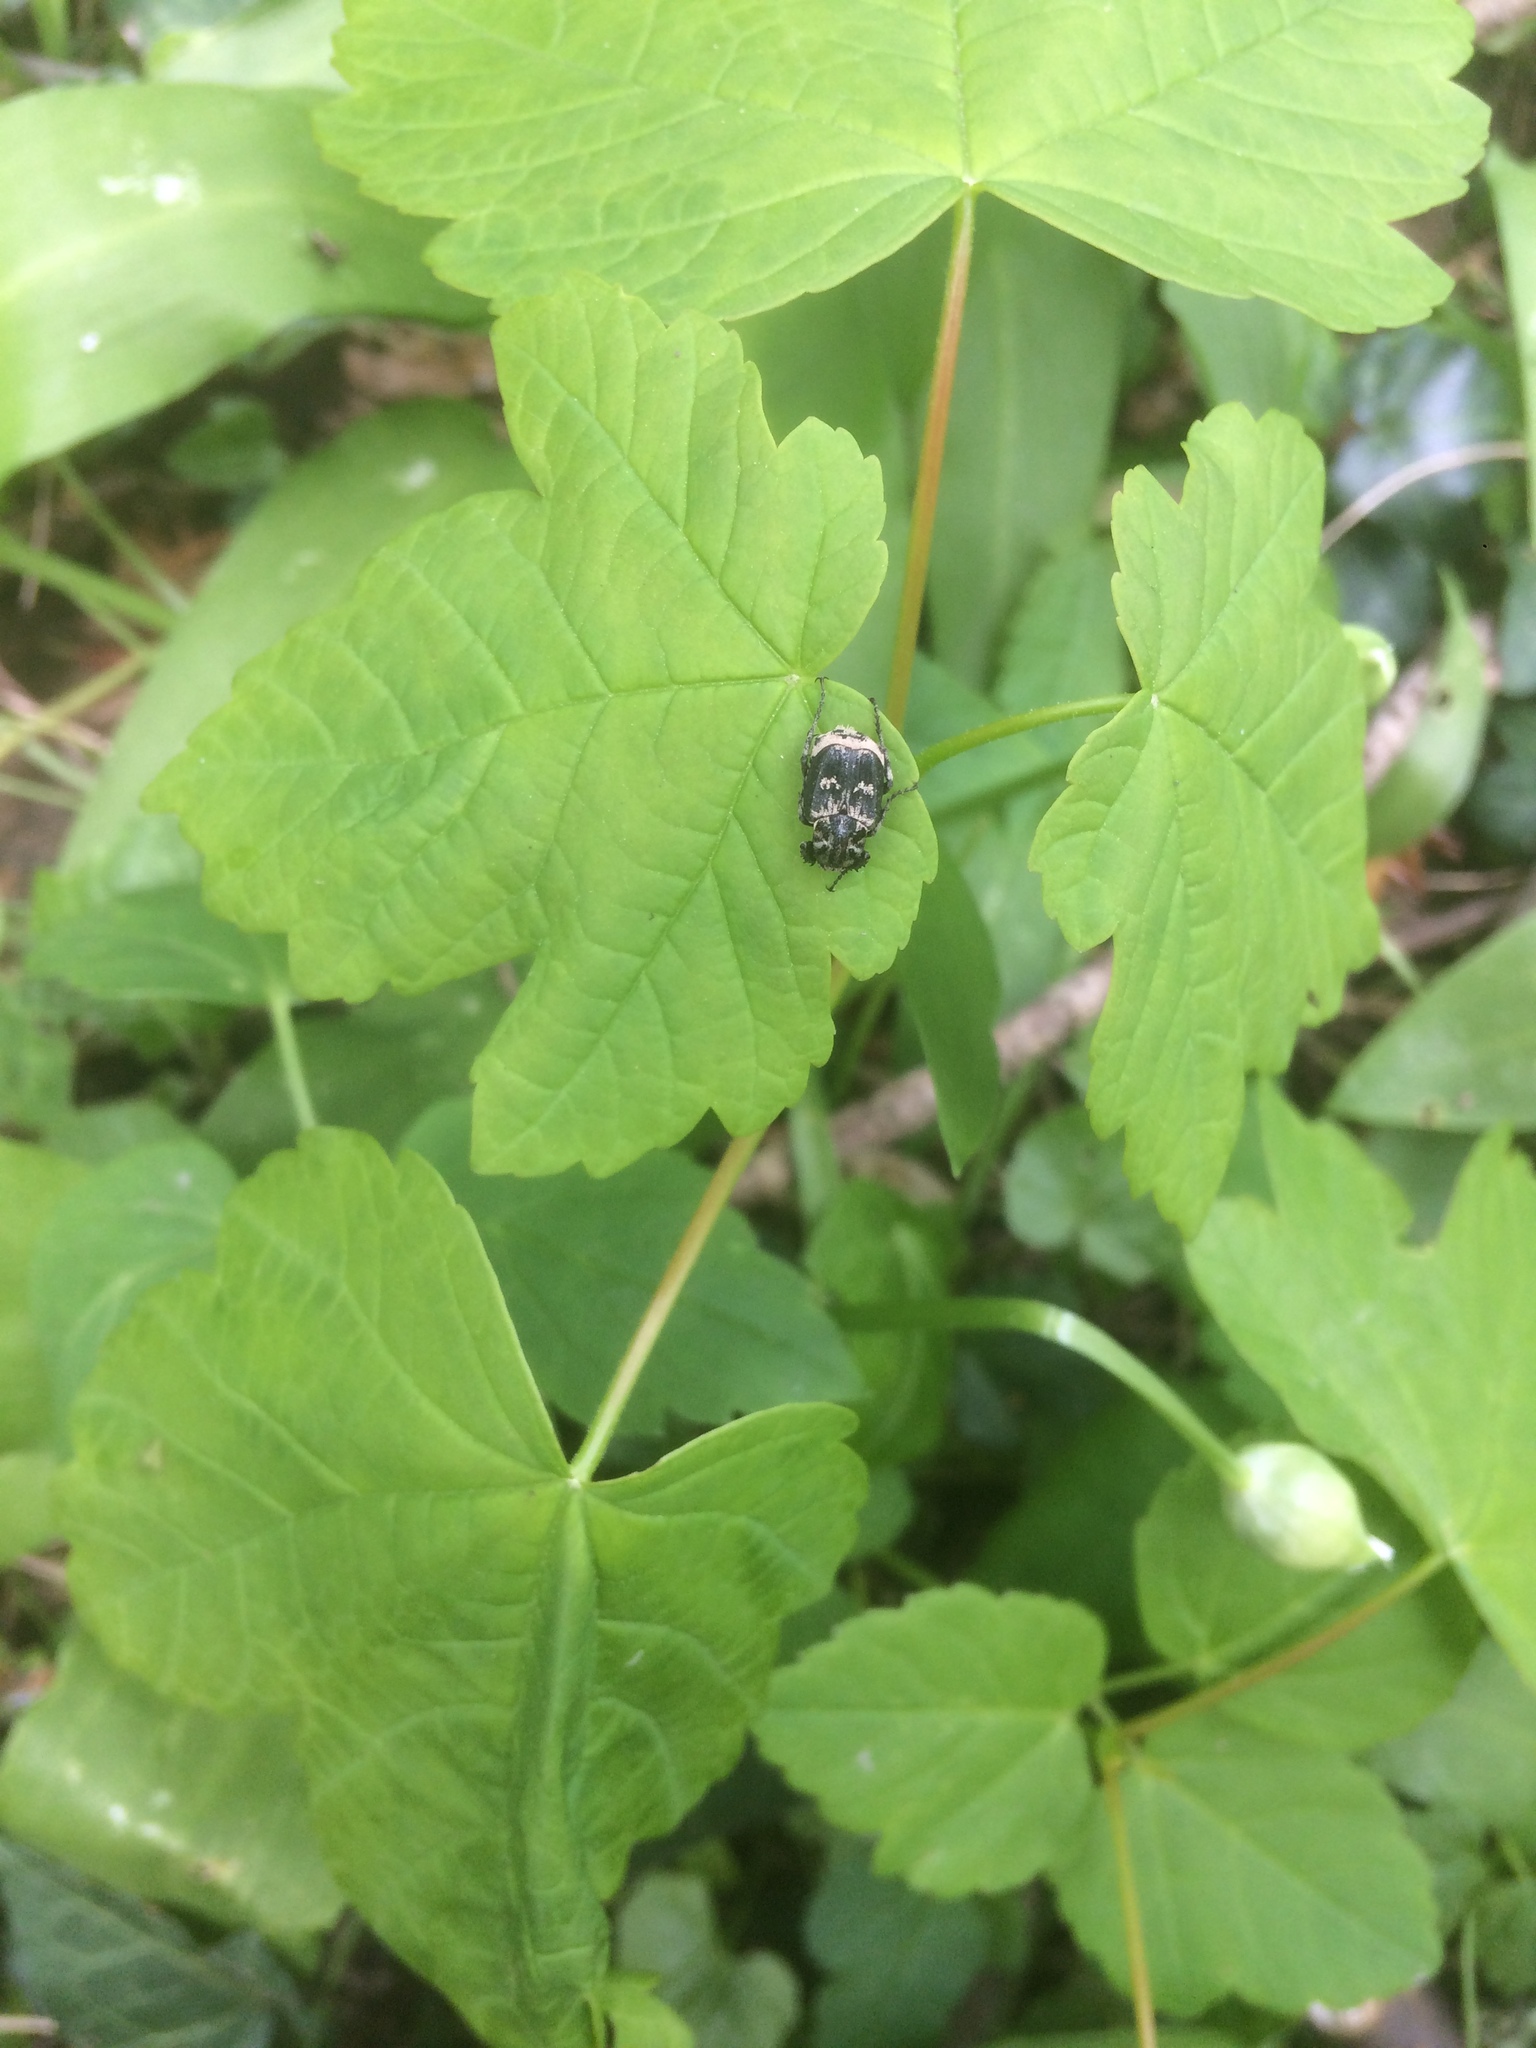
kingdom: Animalia
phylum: Arthropoda
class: Insecta
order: Coleoptera
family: Scarabaeidae
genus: Valgus
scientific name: Valgus hemipterus
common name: Bug flower chafer
